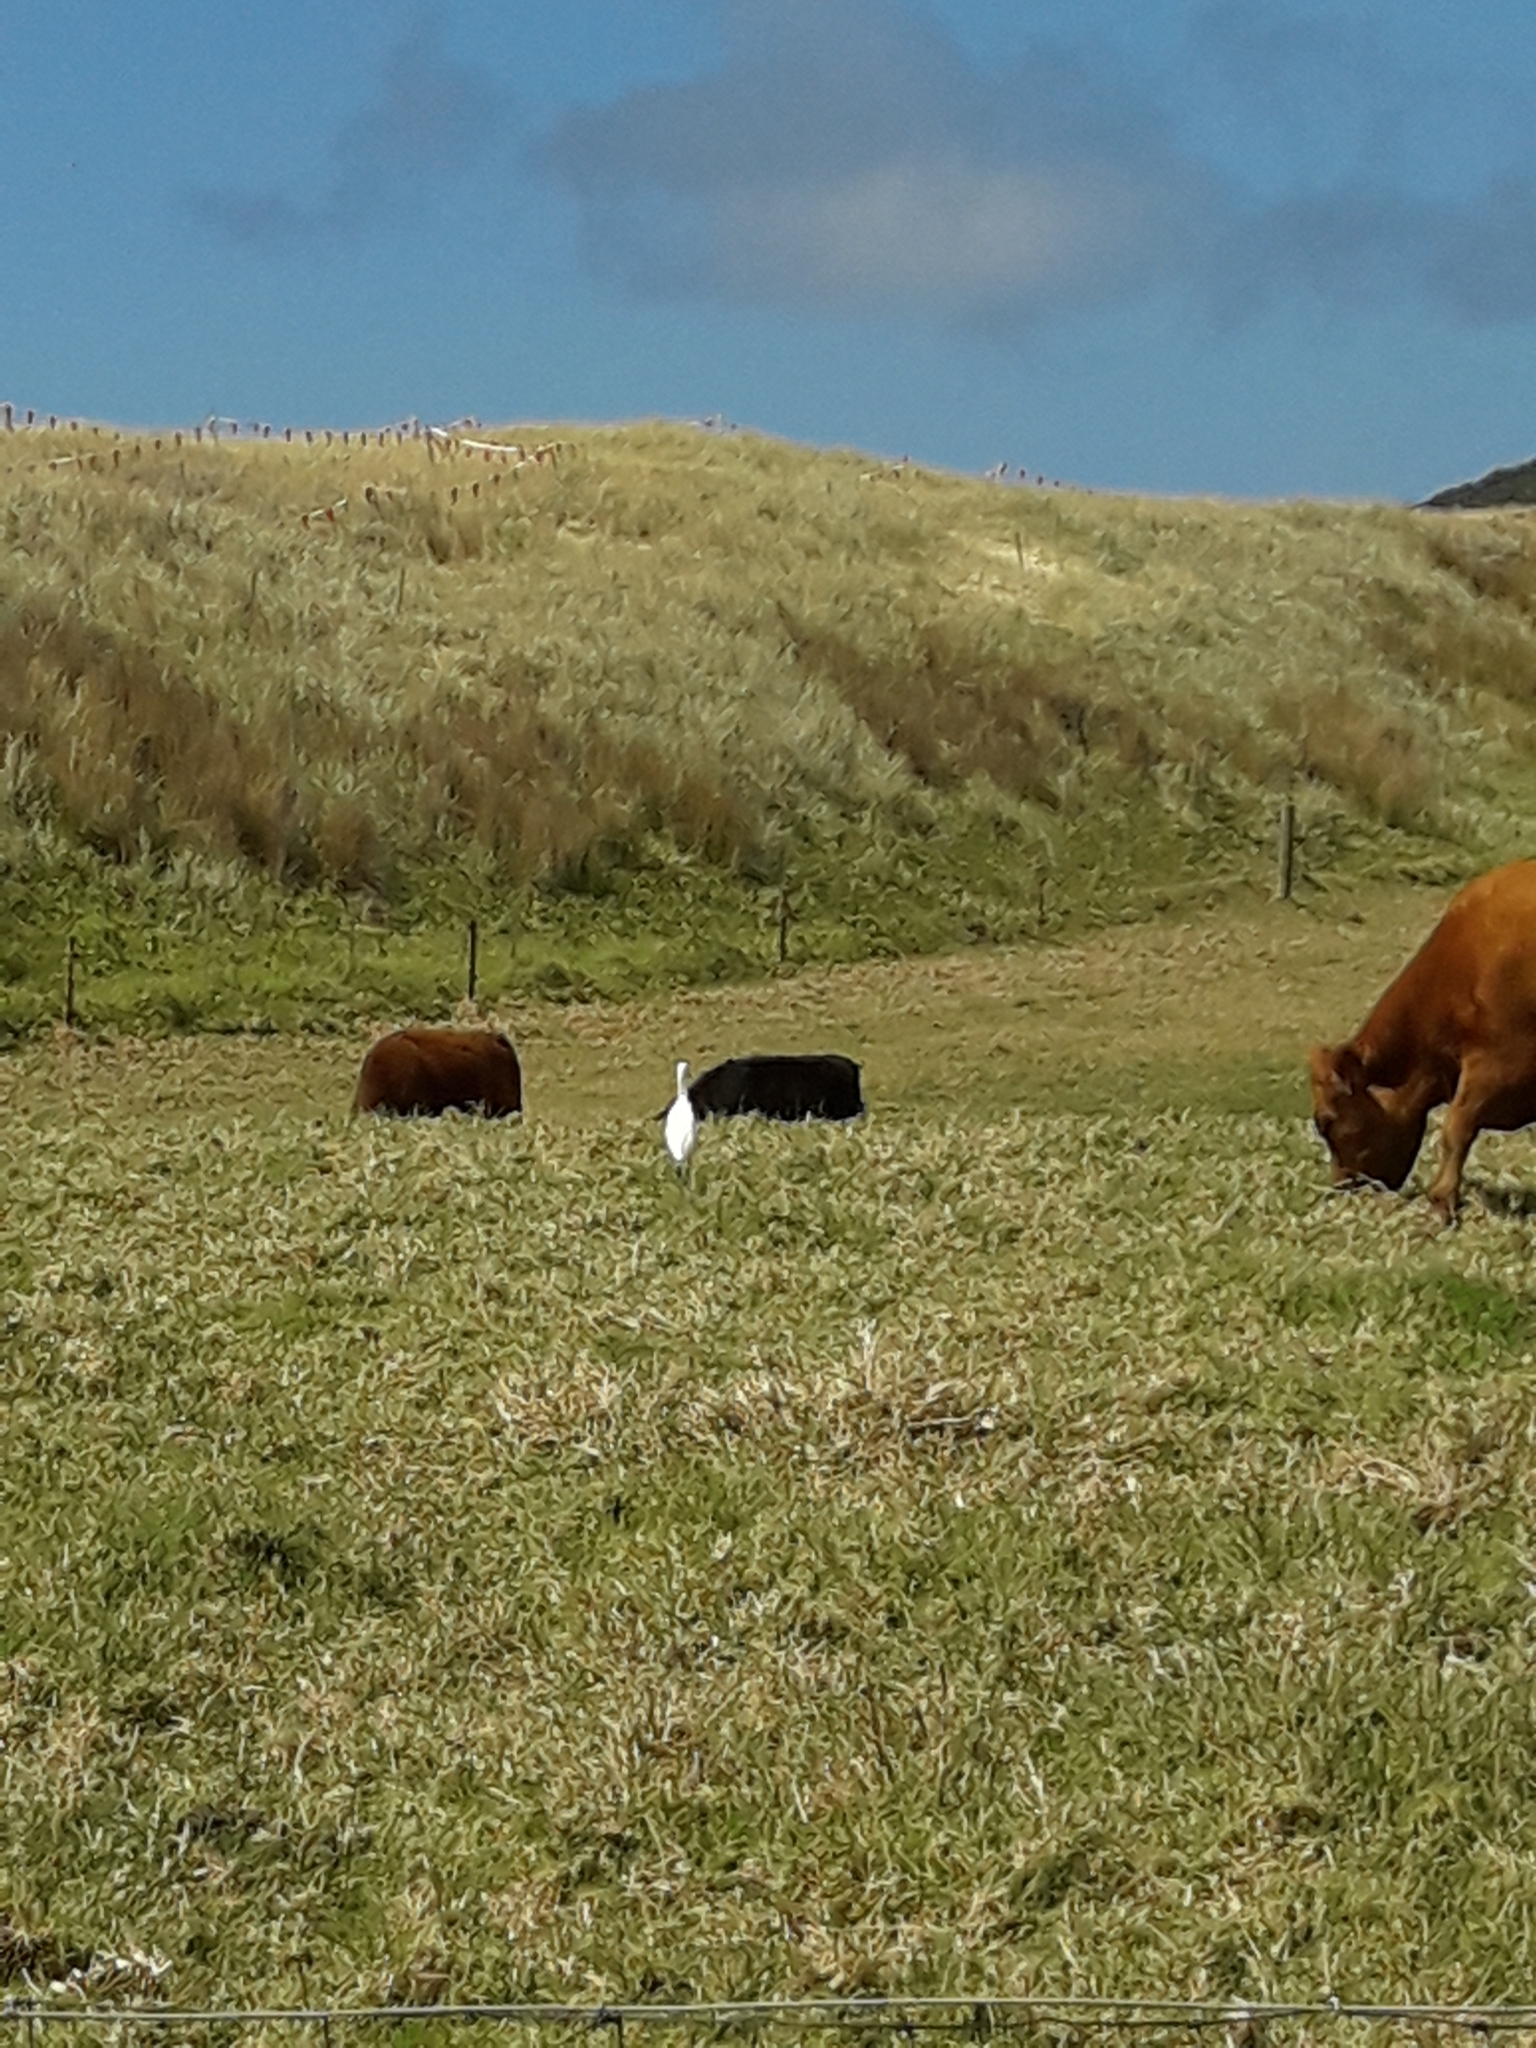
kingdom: Animalia
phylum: Chordata
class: Aves
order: Pelecaniformes
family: Ardeidae
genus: Bubulcus
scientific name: Bubulcus coromandus
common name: Eastern cattle egret
